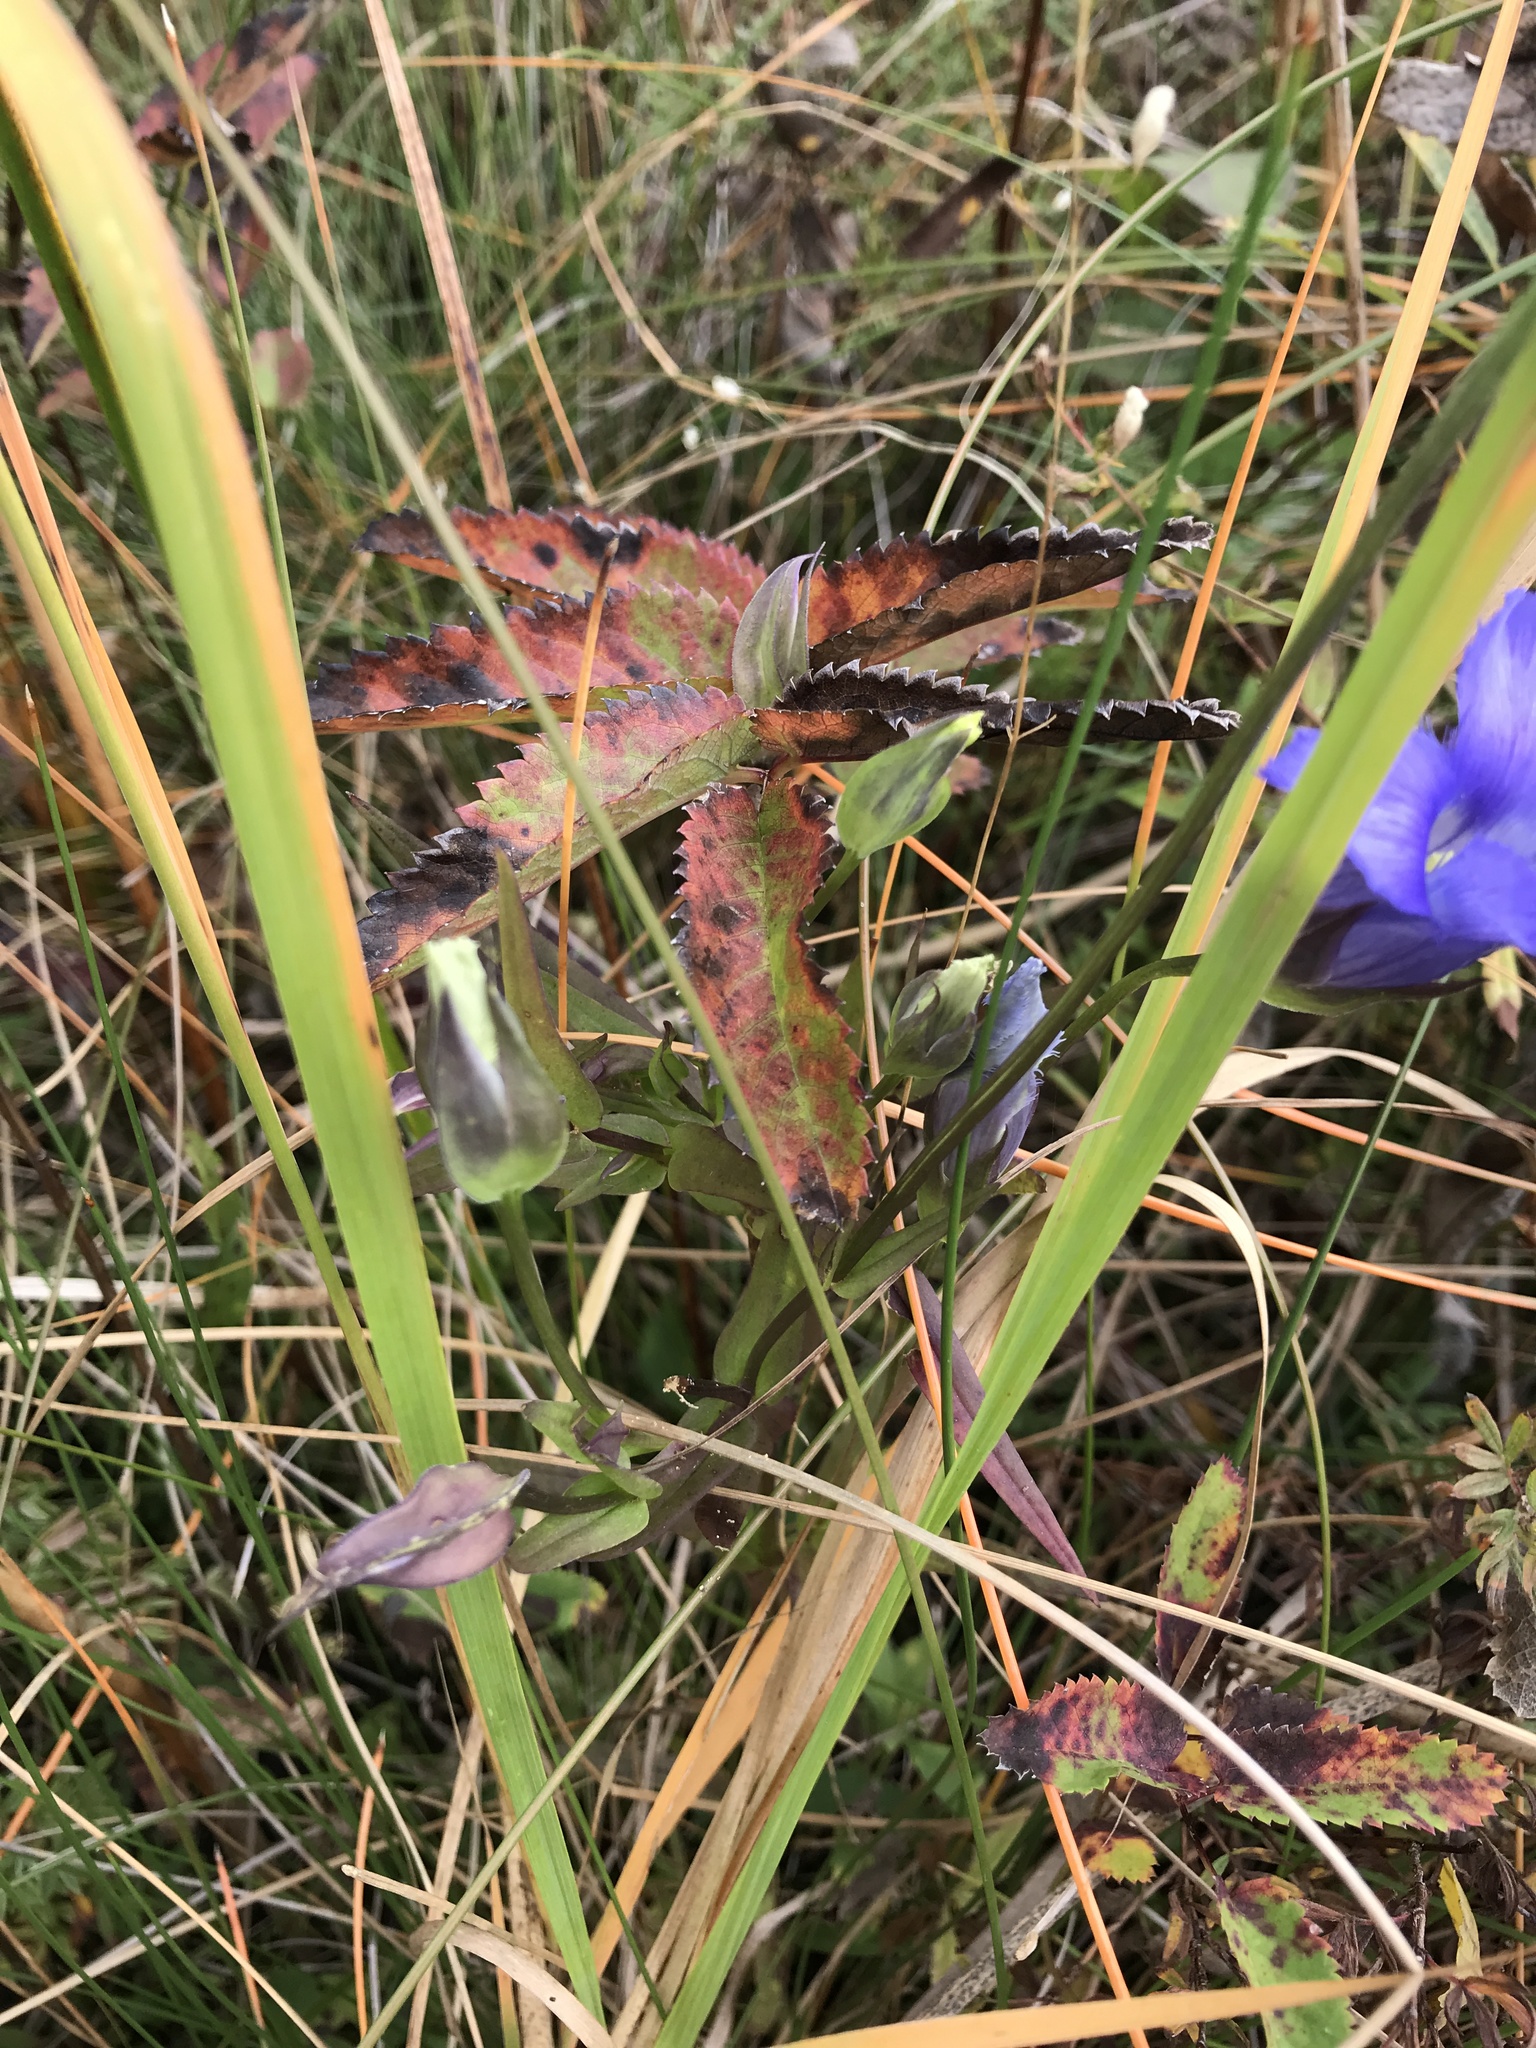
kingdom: Plantae
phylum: Tracheophyta
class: Magnoliopsida
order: Gentianales
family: Gentianaceae
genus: Gentianopsis
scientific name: Gentianopsis virgata
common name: Lesser fringed-gentian
